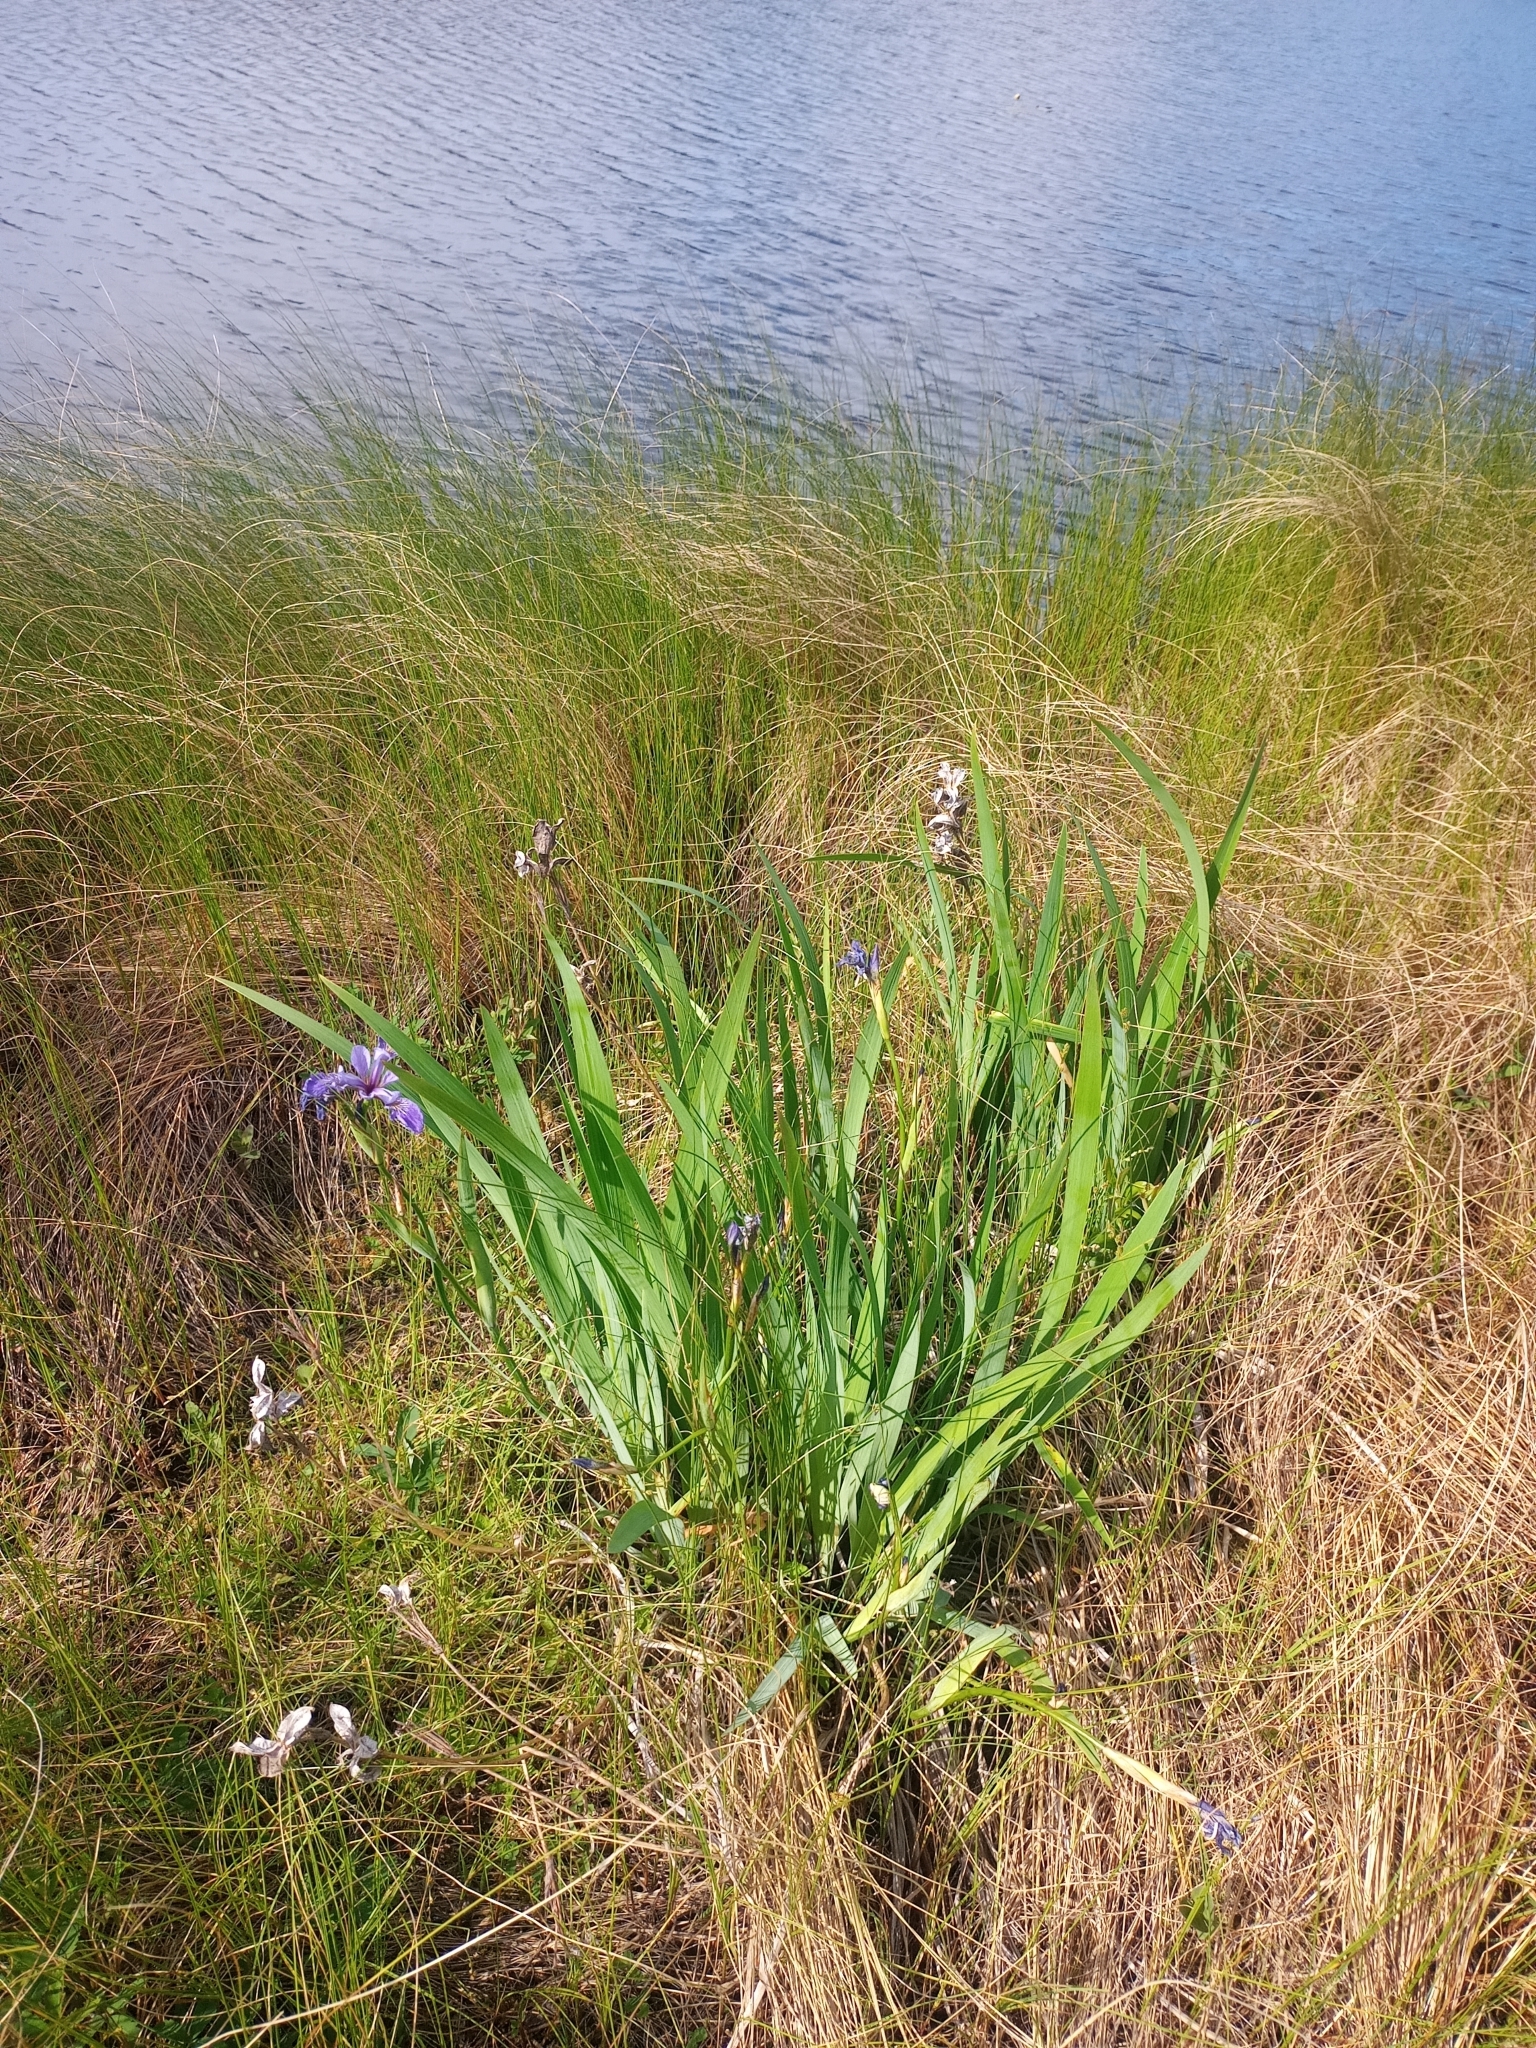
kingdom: Plantae
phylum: Tracheophyta
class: Liliopsida
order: Asparagales
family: Iridaceae
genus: Iris
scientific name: Iris versicolor
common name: Purple iris
